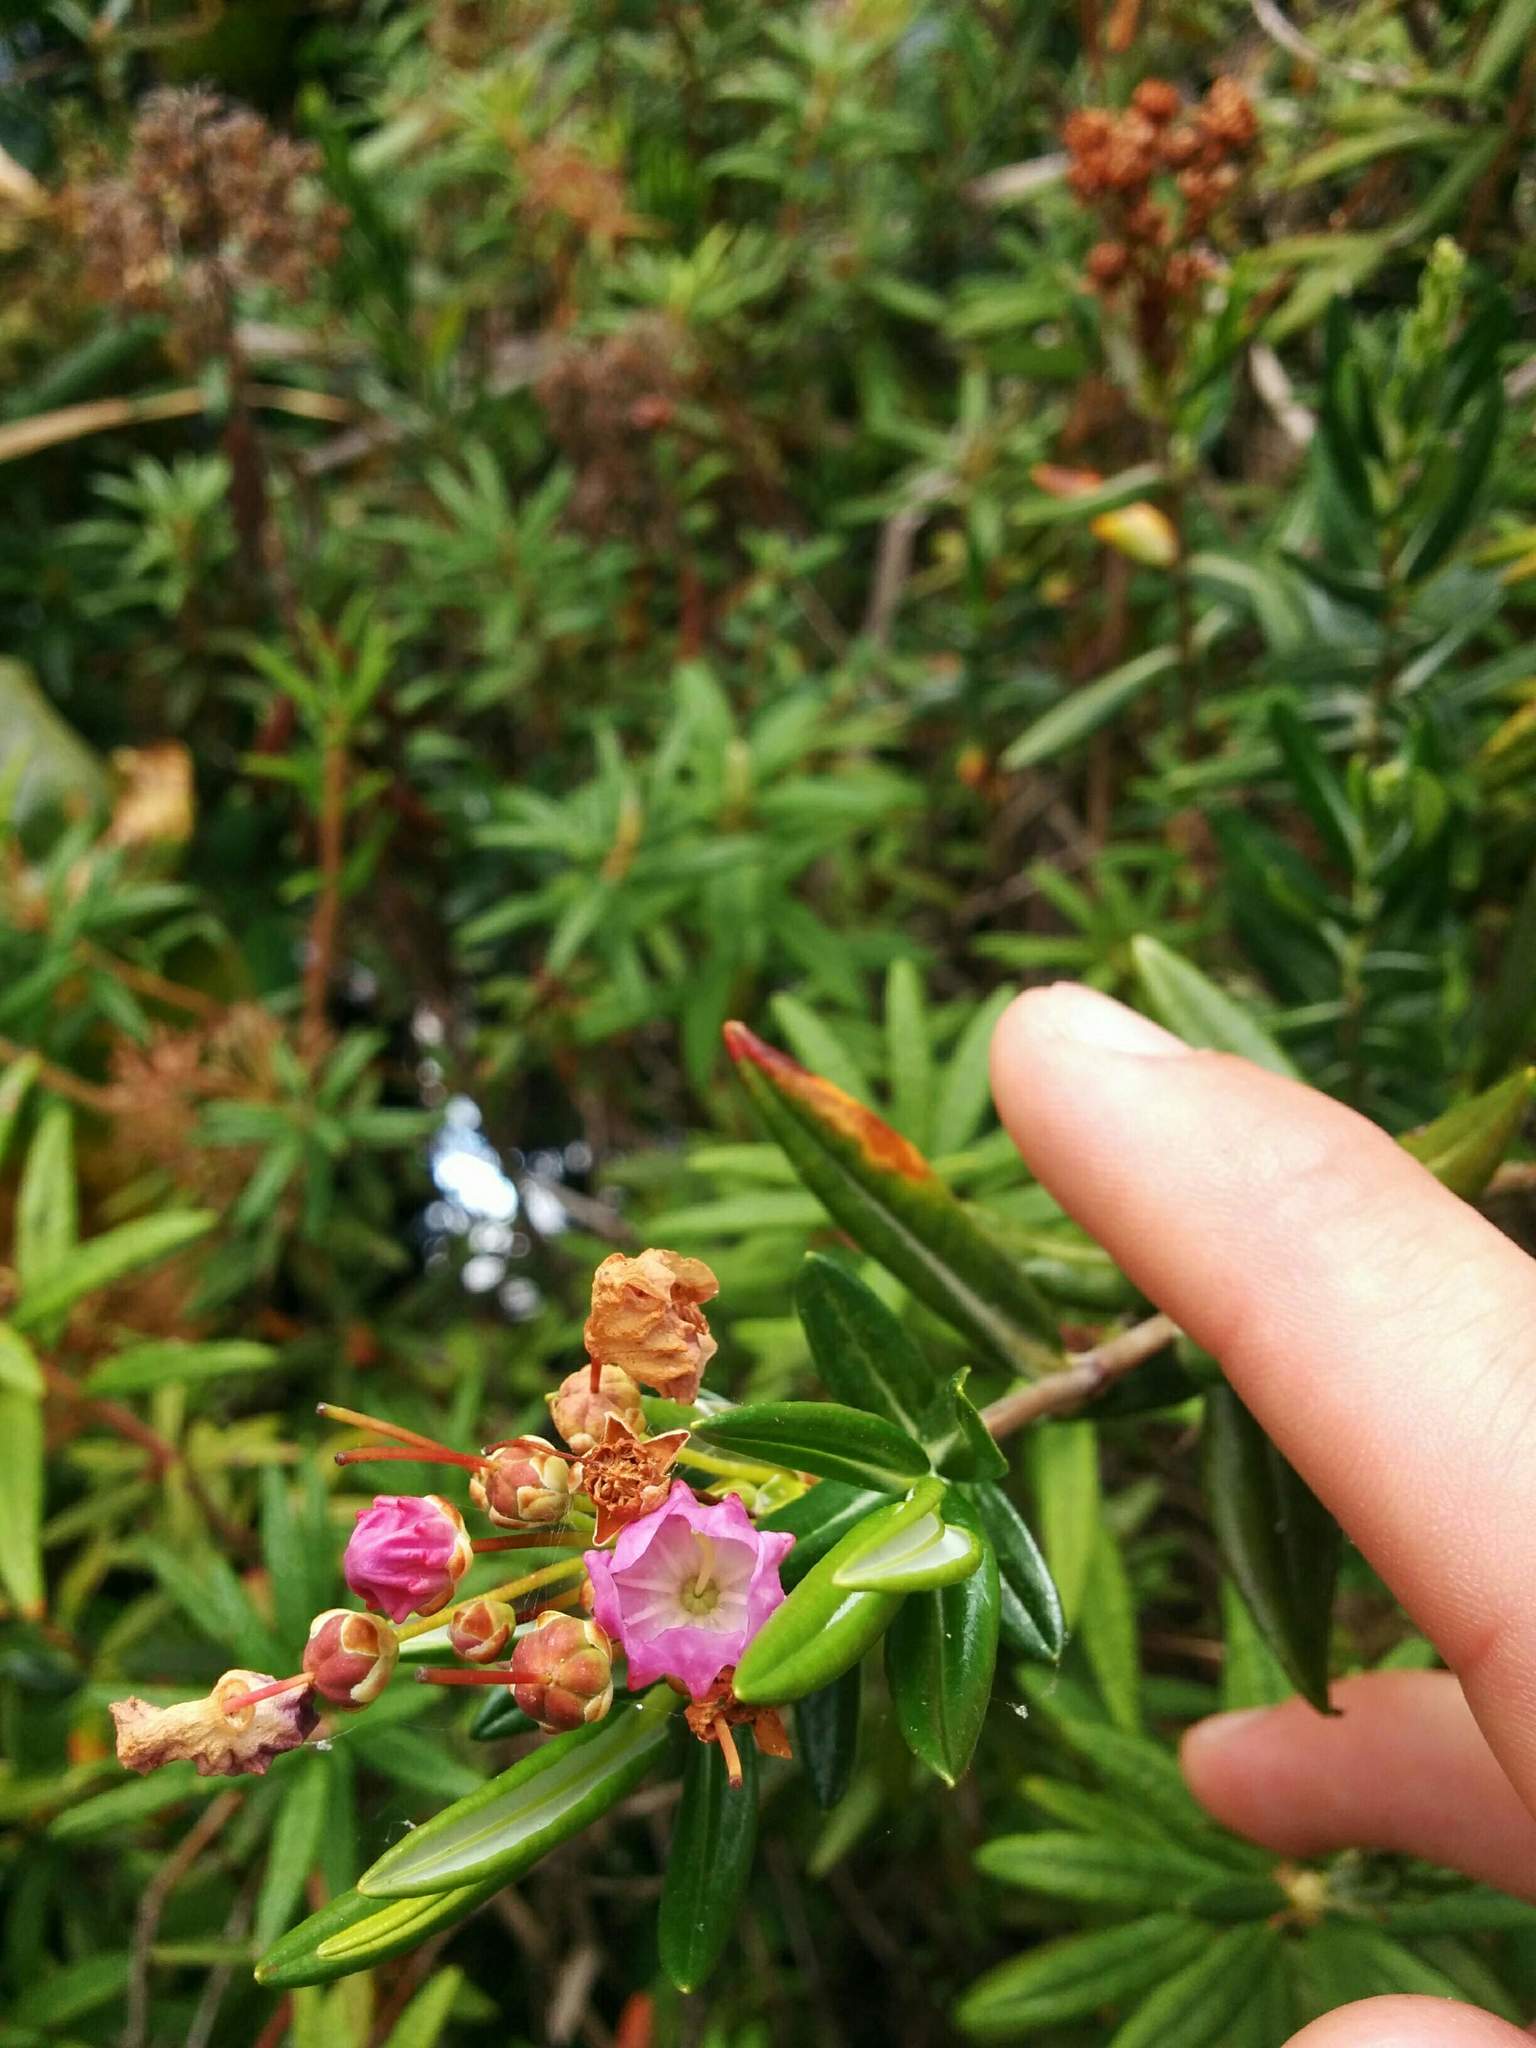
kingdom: Plantae
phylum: Tracheophyta
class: Magnoliopsida
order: Ericales
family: Ericaceae
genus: Kalmia
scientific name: Kalmia microphylla
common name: Alpine bog laurel
